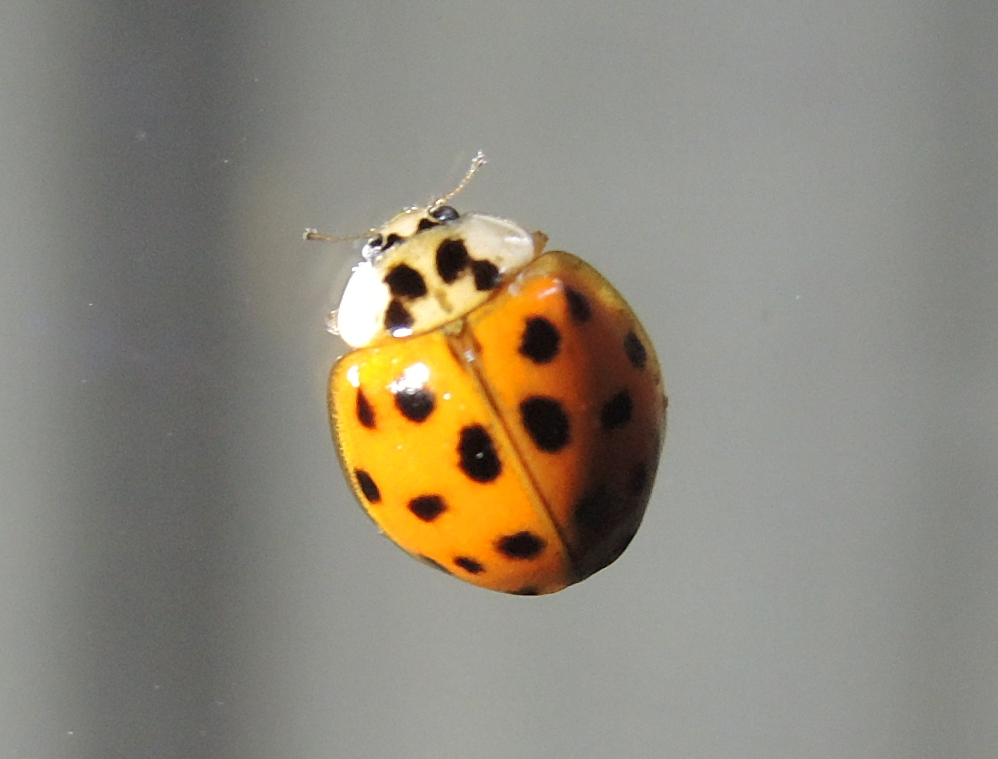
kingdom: Animalia
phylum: Arthropoda
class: Insecta
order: Coleoptera
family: Coccinellidae
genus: Harmonia
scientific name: Harmonia axyridis
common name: Harlequin ladybird
